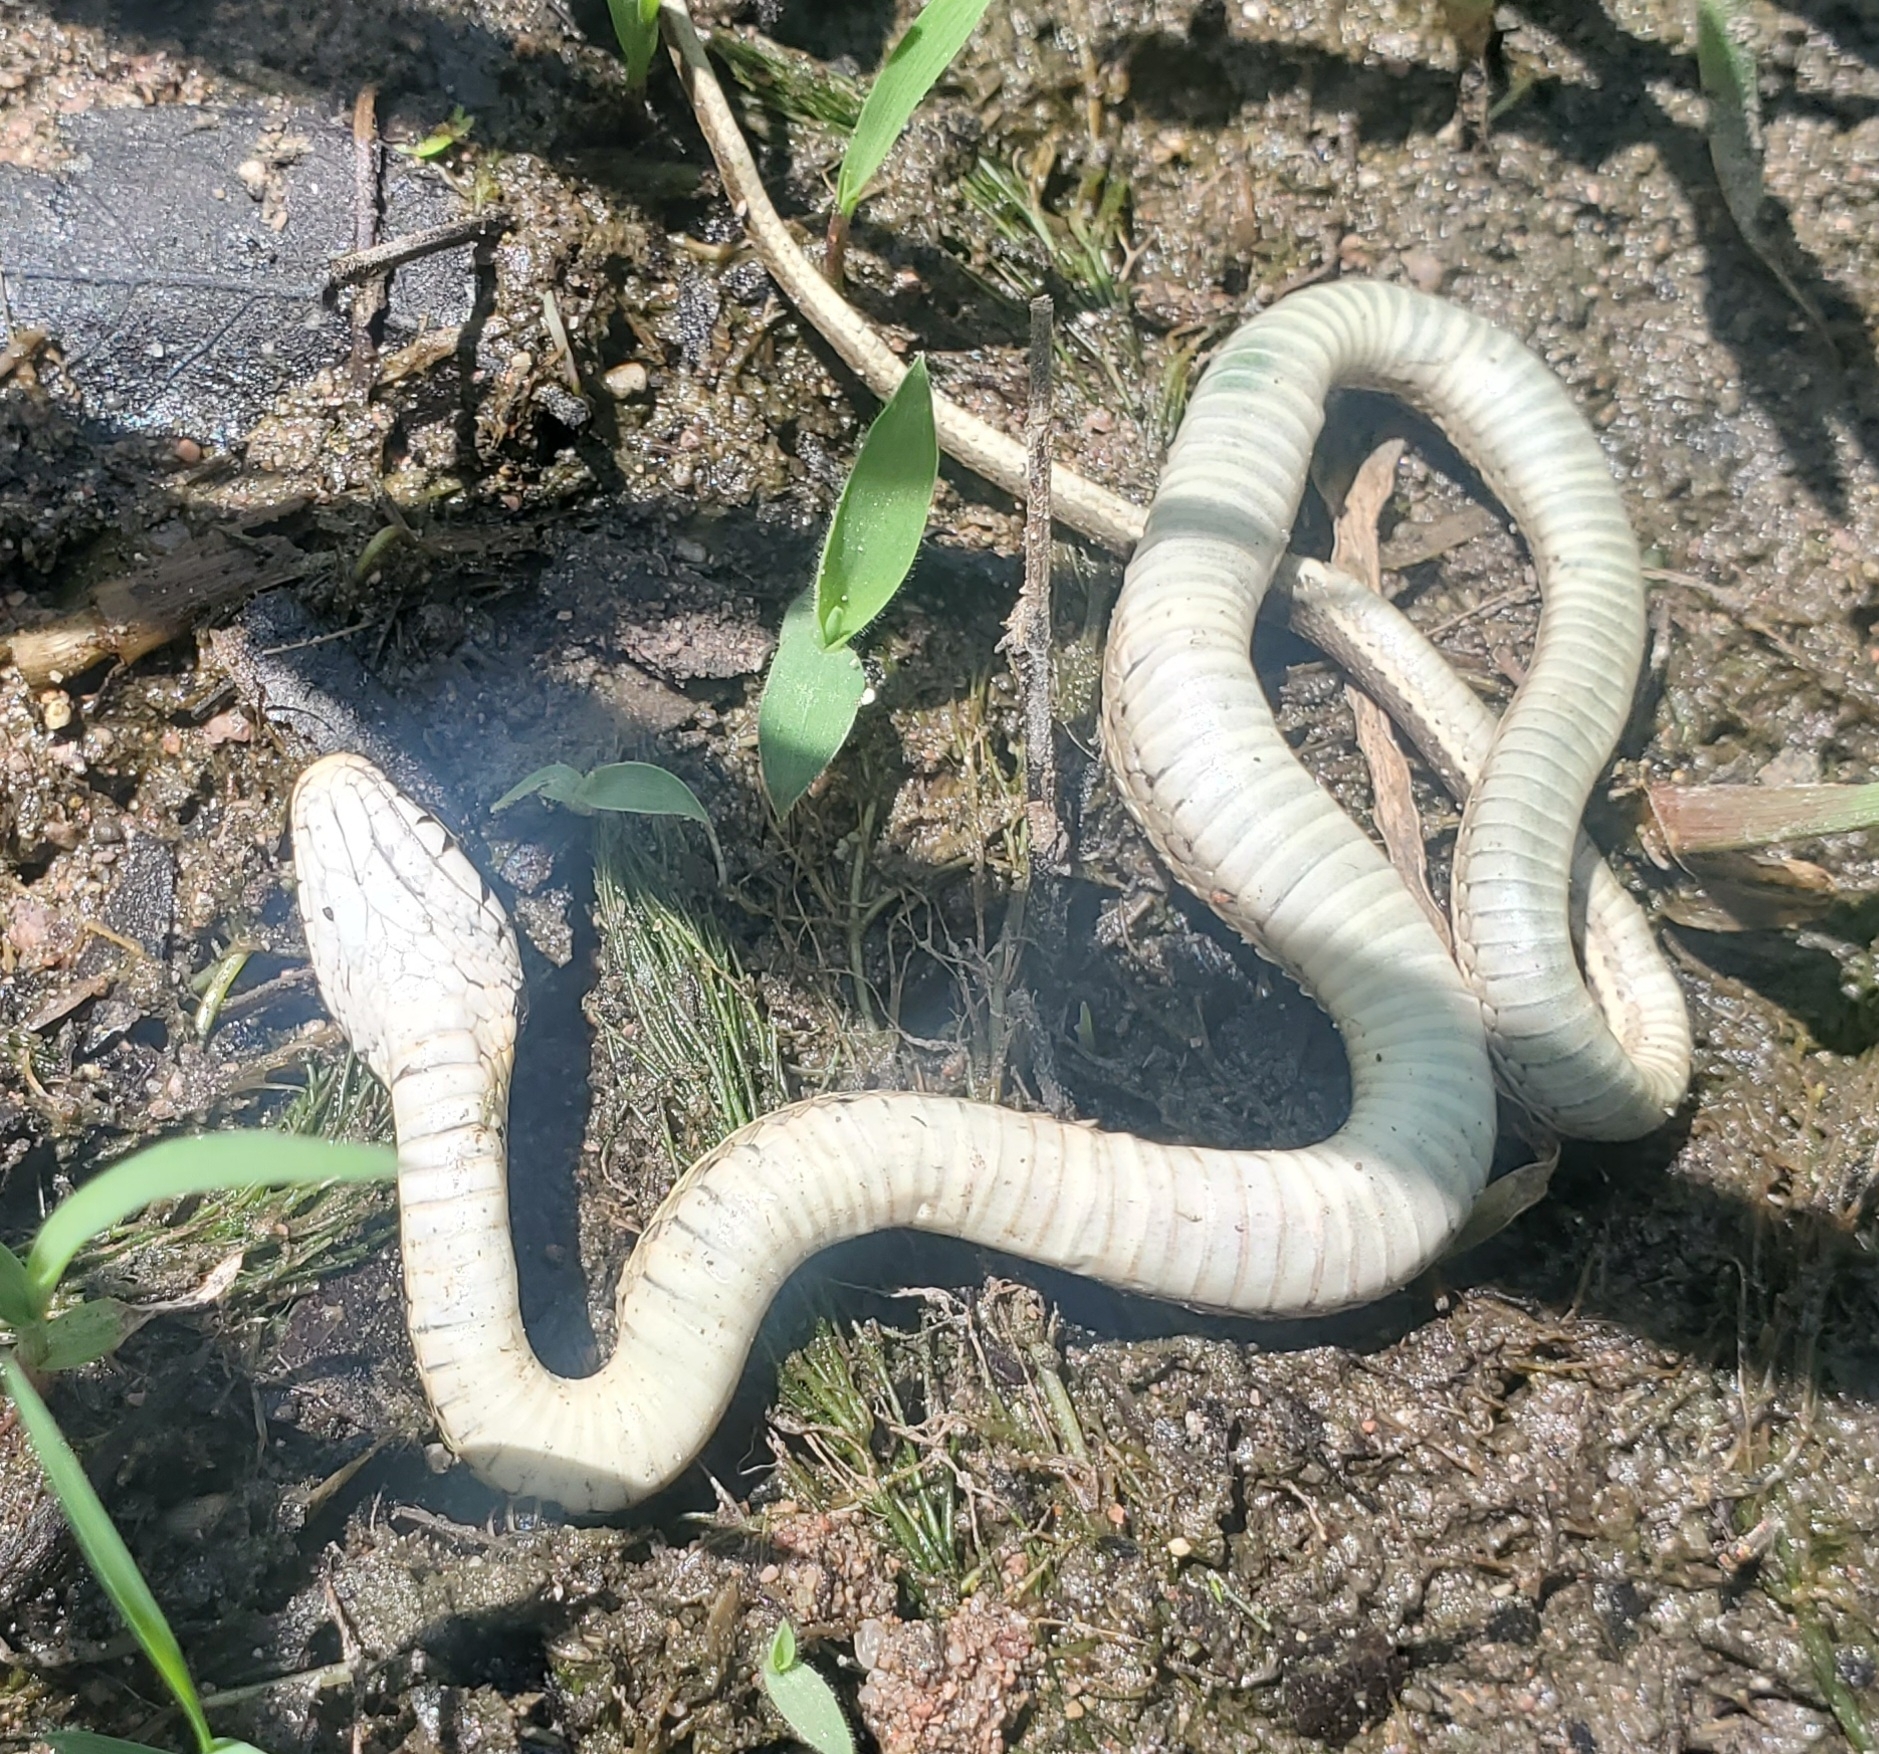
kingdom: Animalia
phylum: Chordata
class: Squamata
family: Colubridae
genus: Thamnophis
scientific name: Thamnophis cyrtopsis
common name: Black-necked gartersnake
